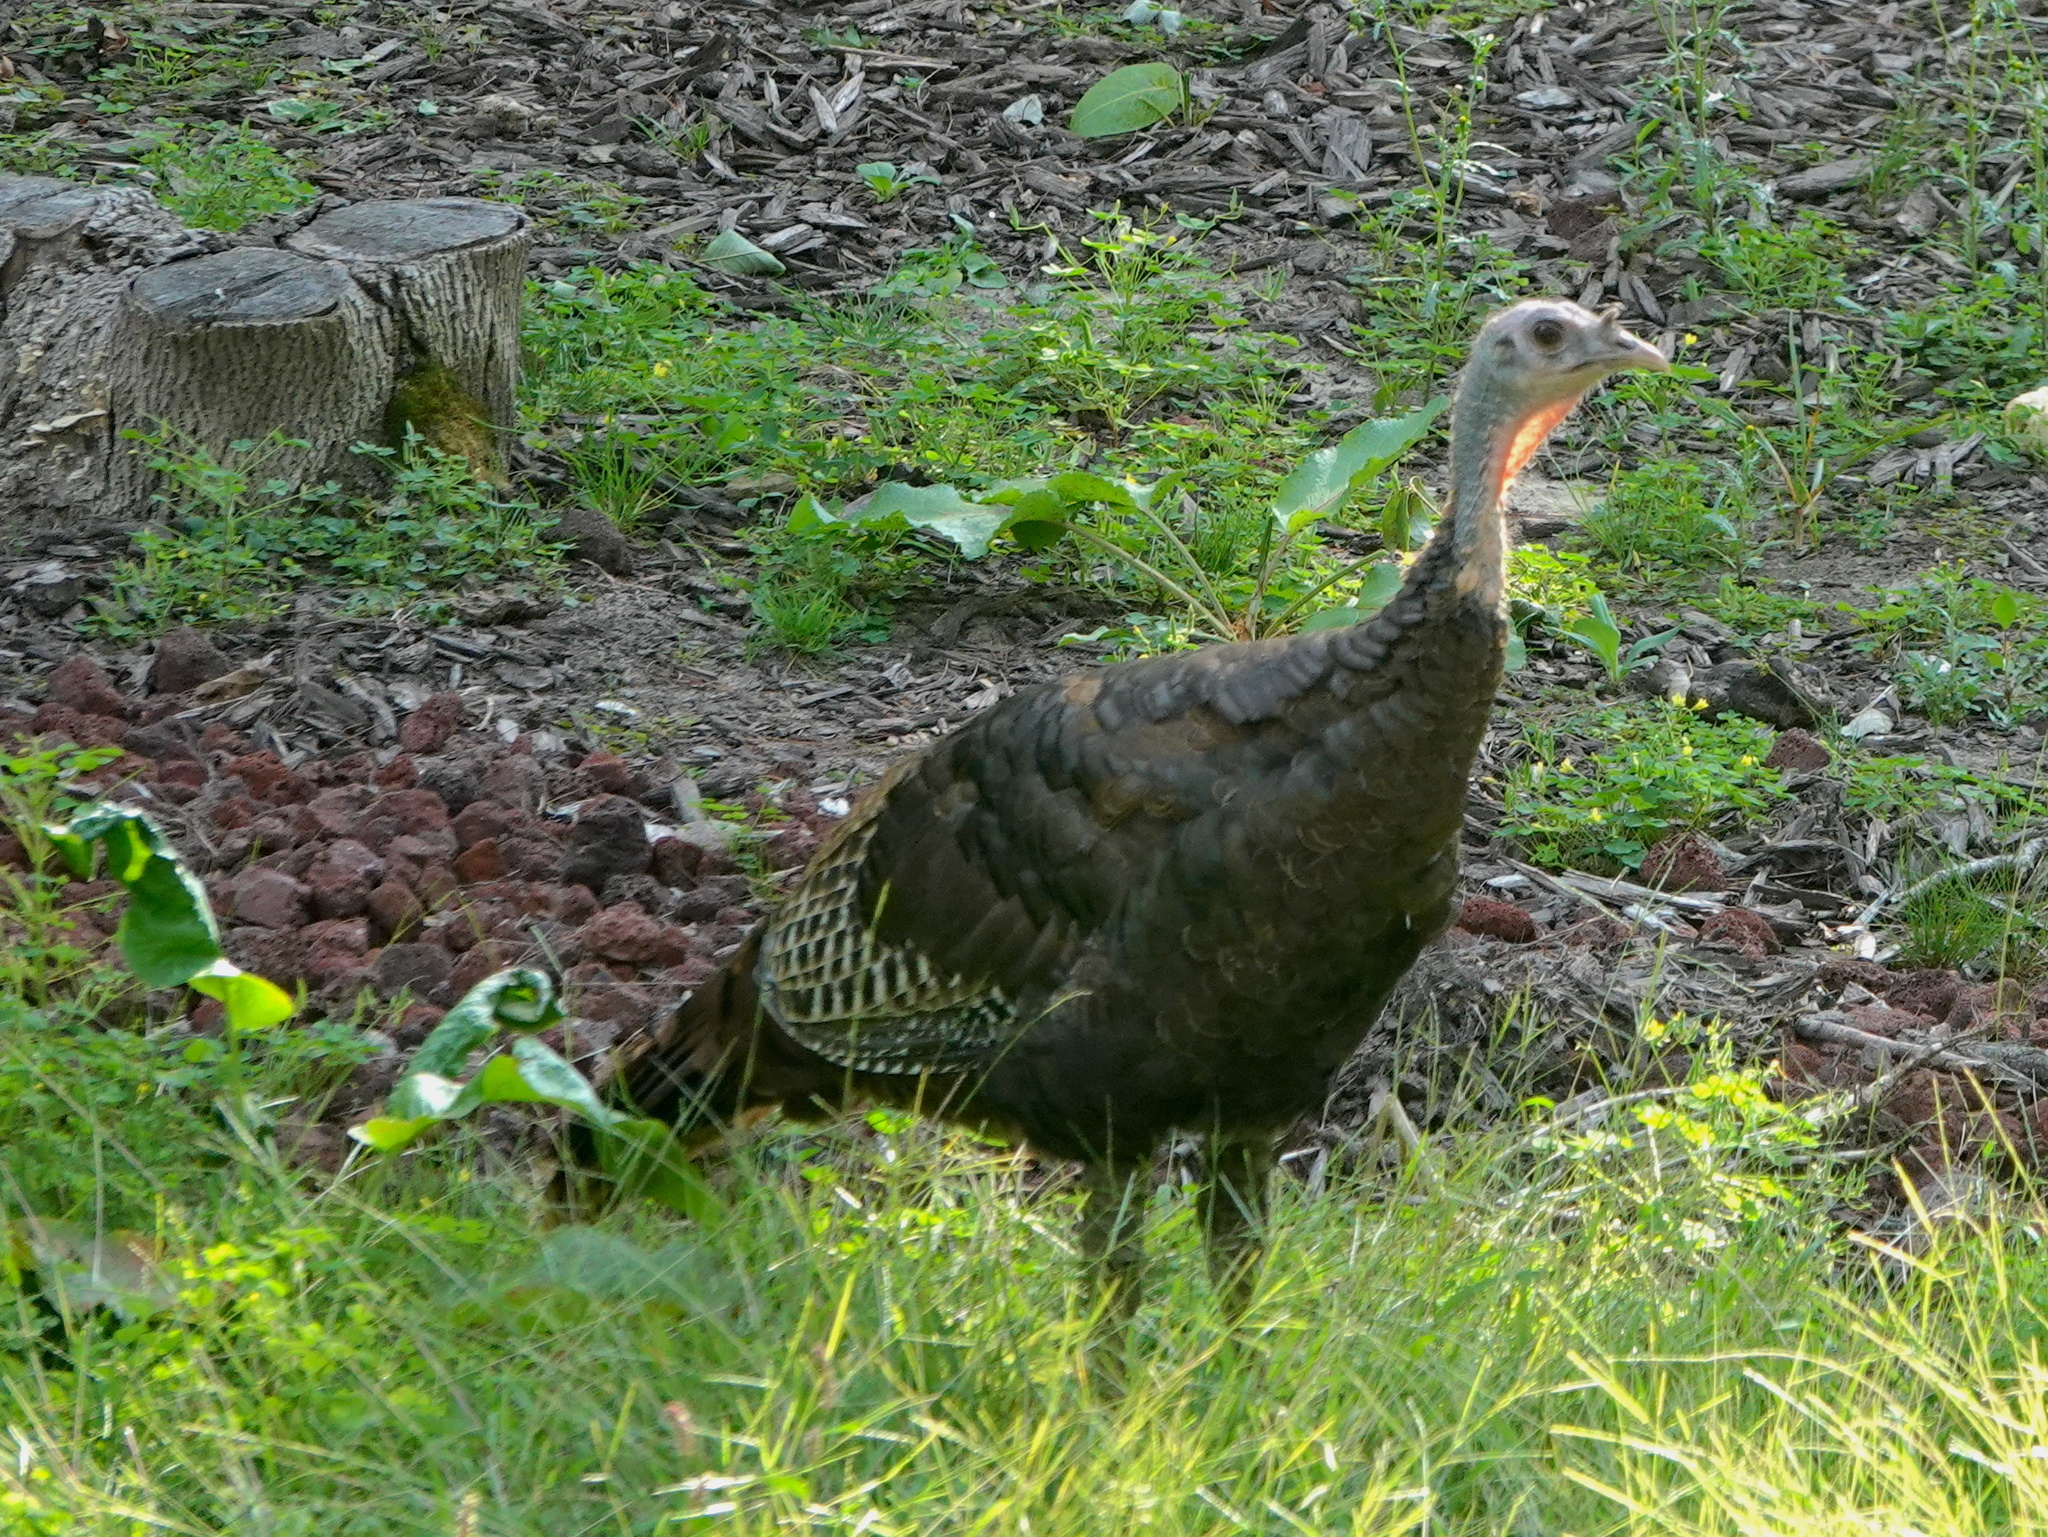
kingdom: Animalia
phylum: Chordata
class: Aves
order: Galliformes
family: Phasianidae
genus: Meleagris
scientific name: Meleagris gallopavo
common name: Wild turkey
